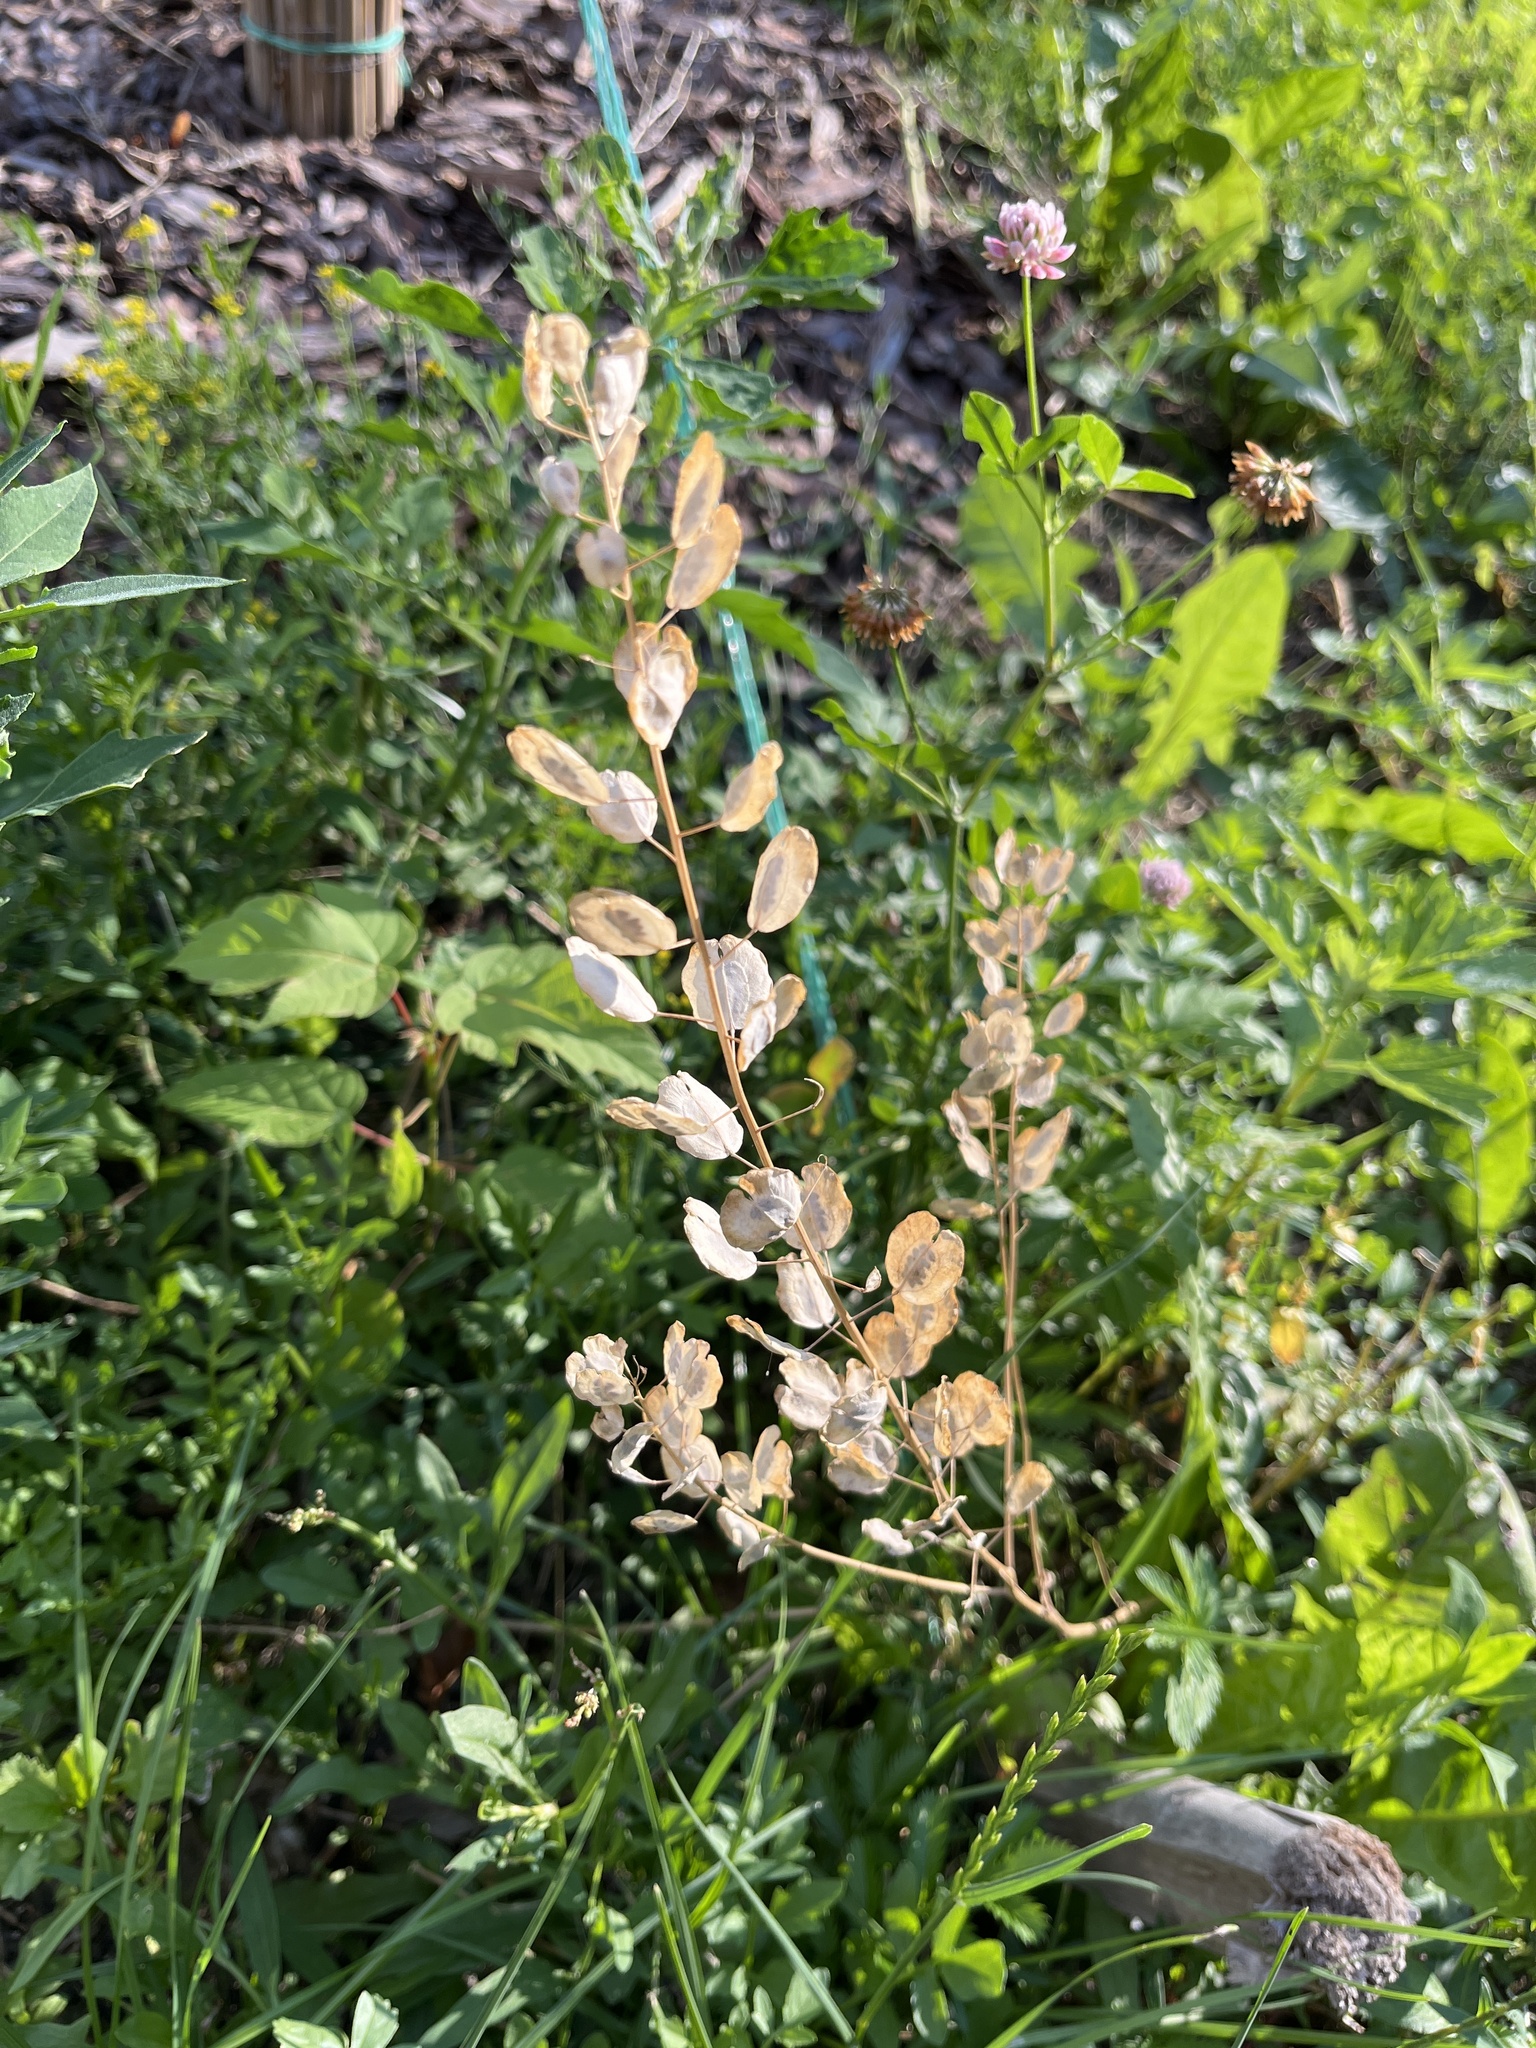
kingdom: Plantae
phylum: Tracheophyta
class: Magnoliopsida
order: Brassicales
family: Brassicaceae
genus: Thlaspi
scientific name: Thlaspi arvense
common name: Field pennycress
